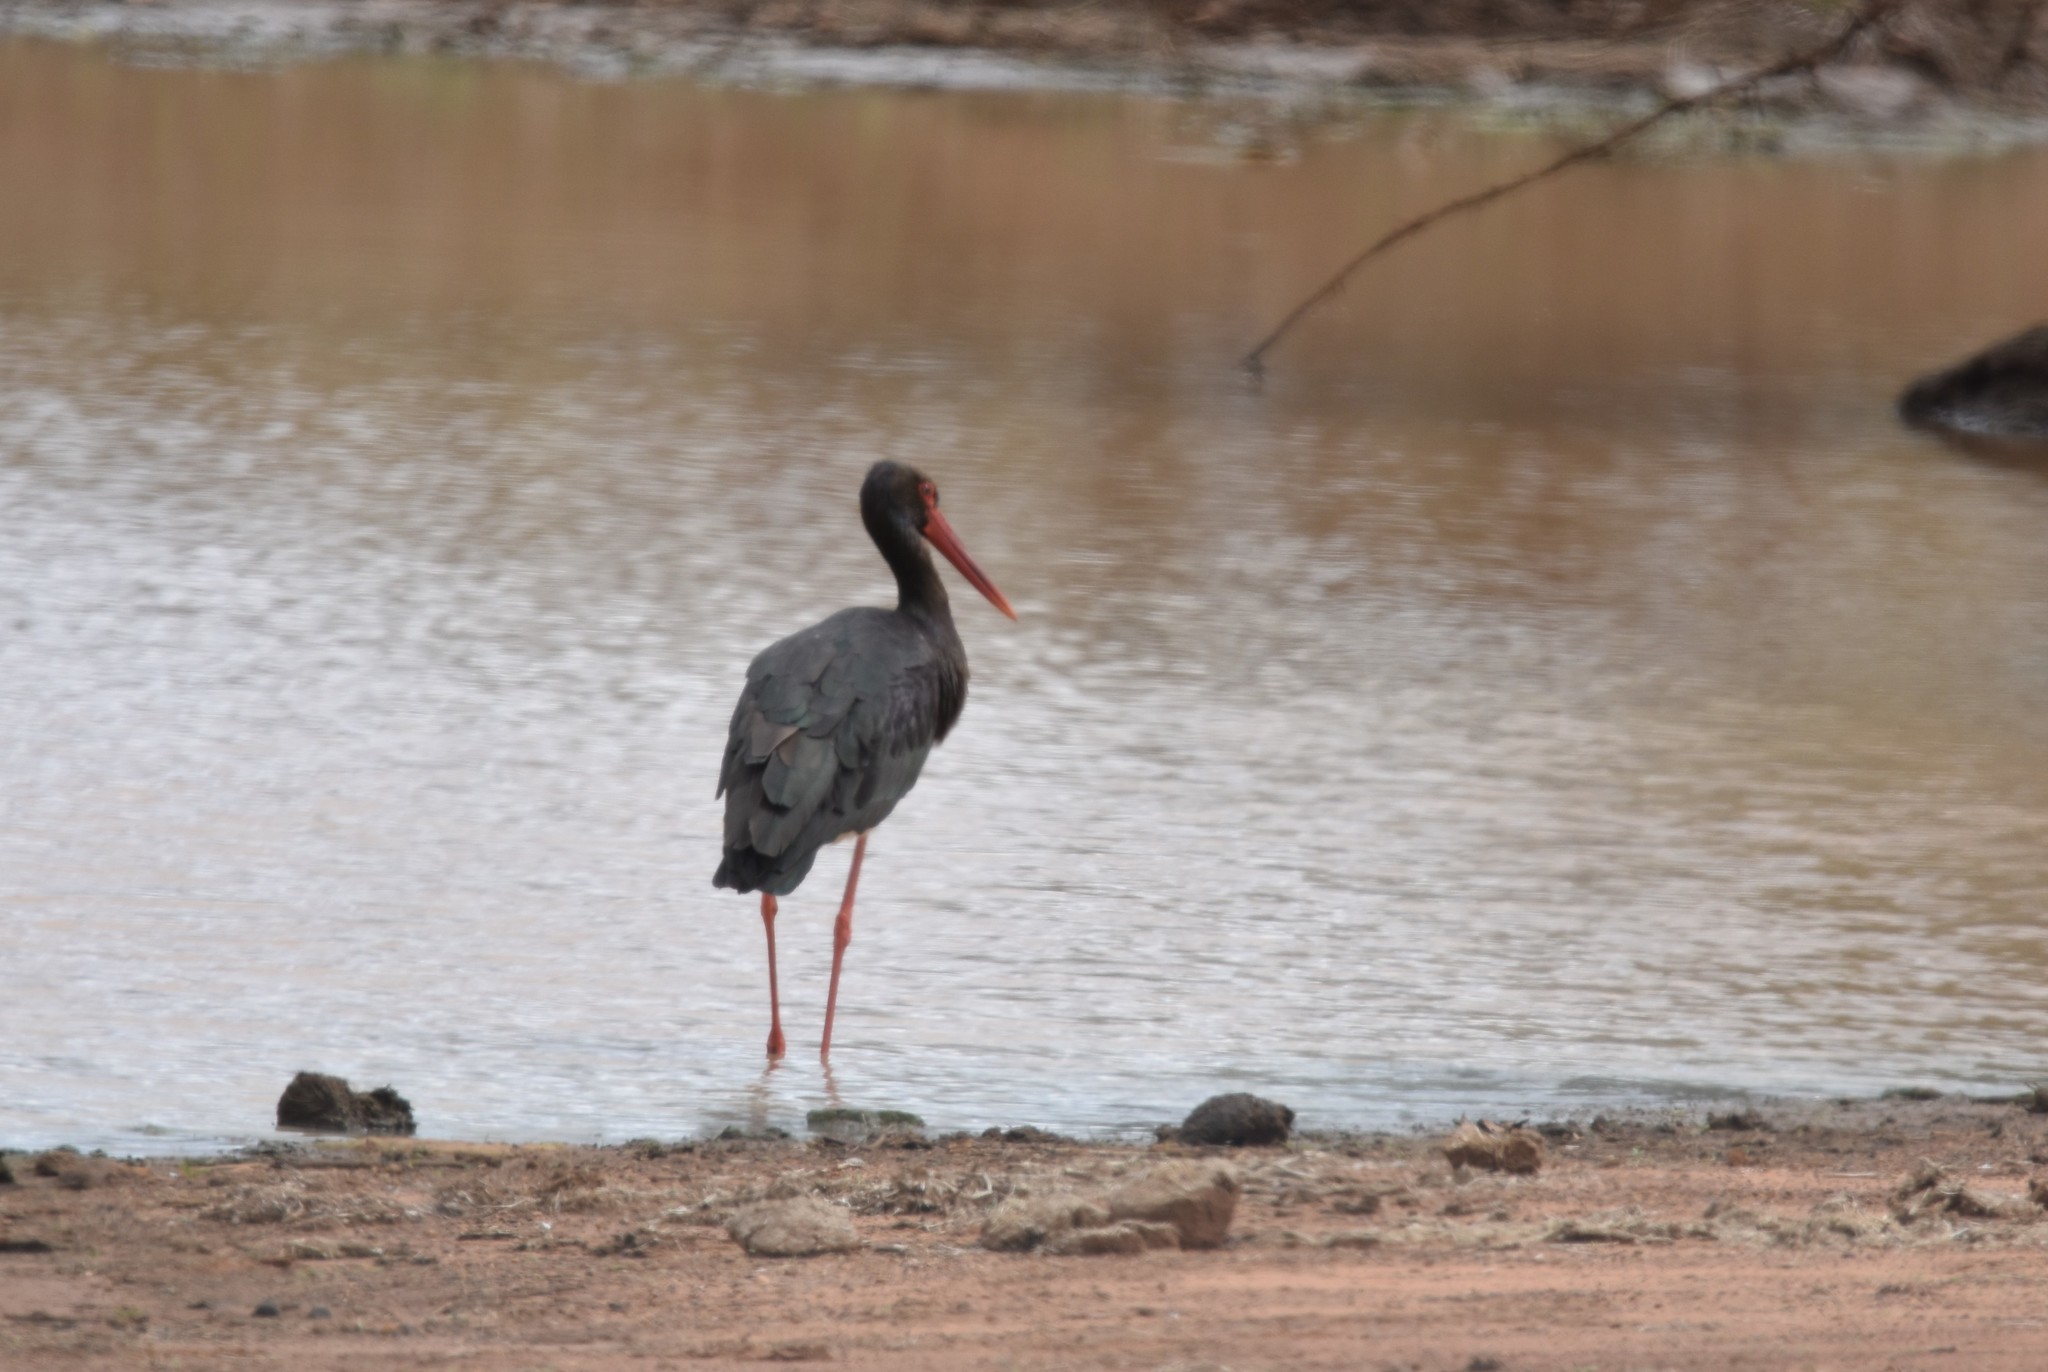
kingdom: Animalia
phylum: Chordata
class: Aves
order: Ciconiiformes
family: Ciconiidae
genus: Ciconia
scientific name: Ciconia nigra
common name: Black stork
